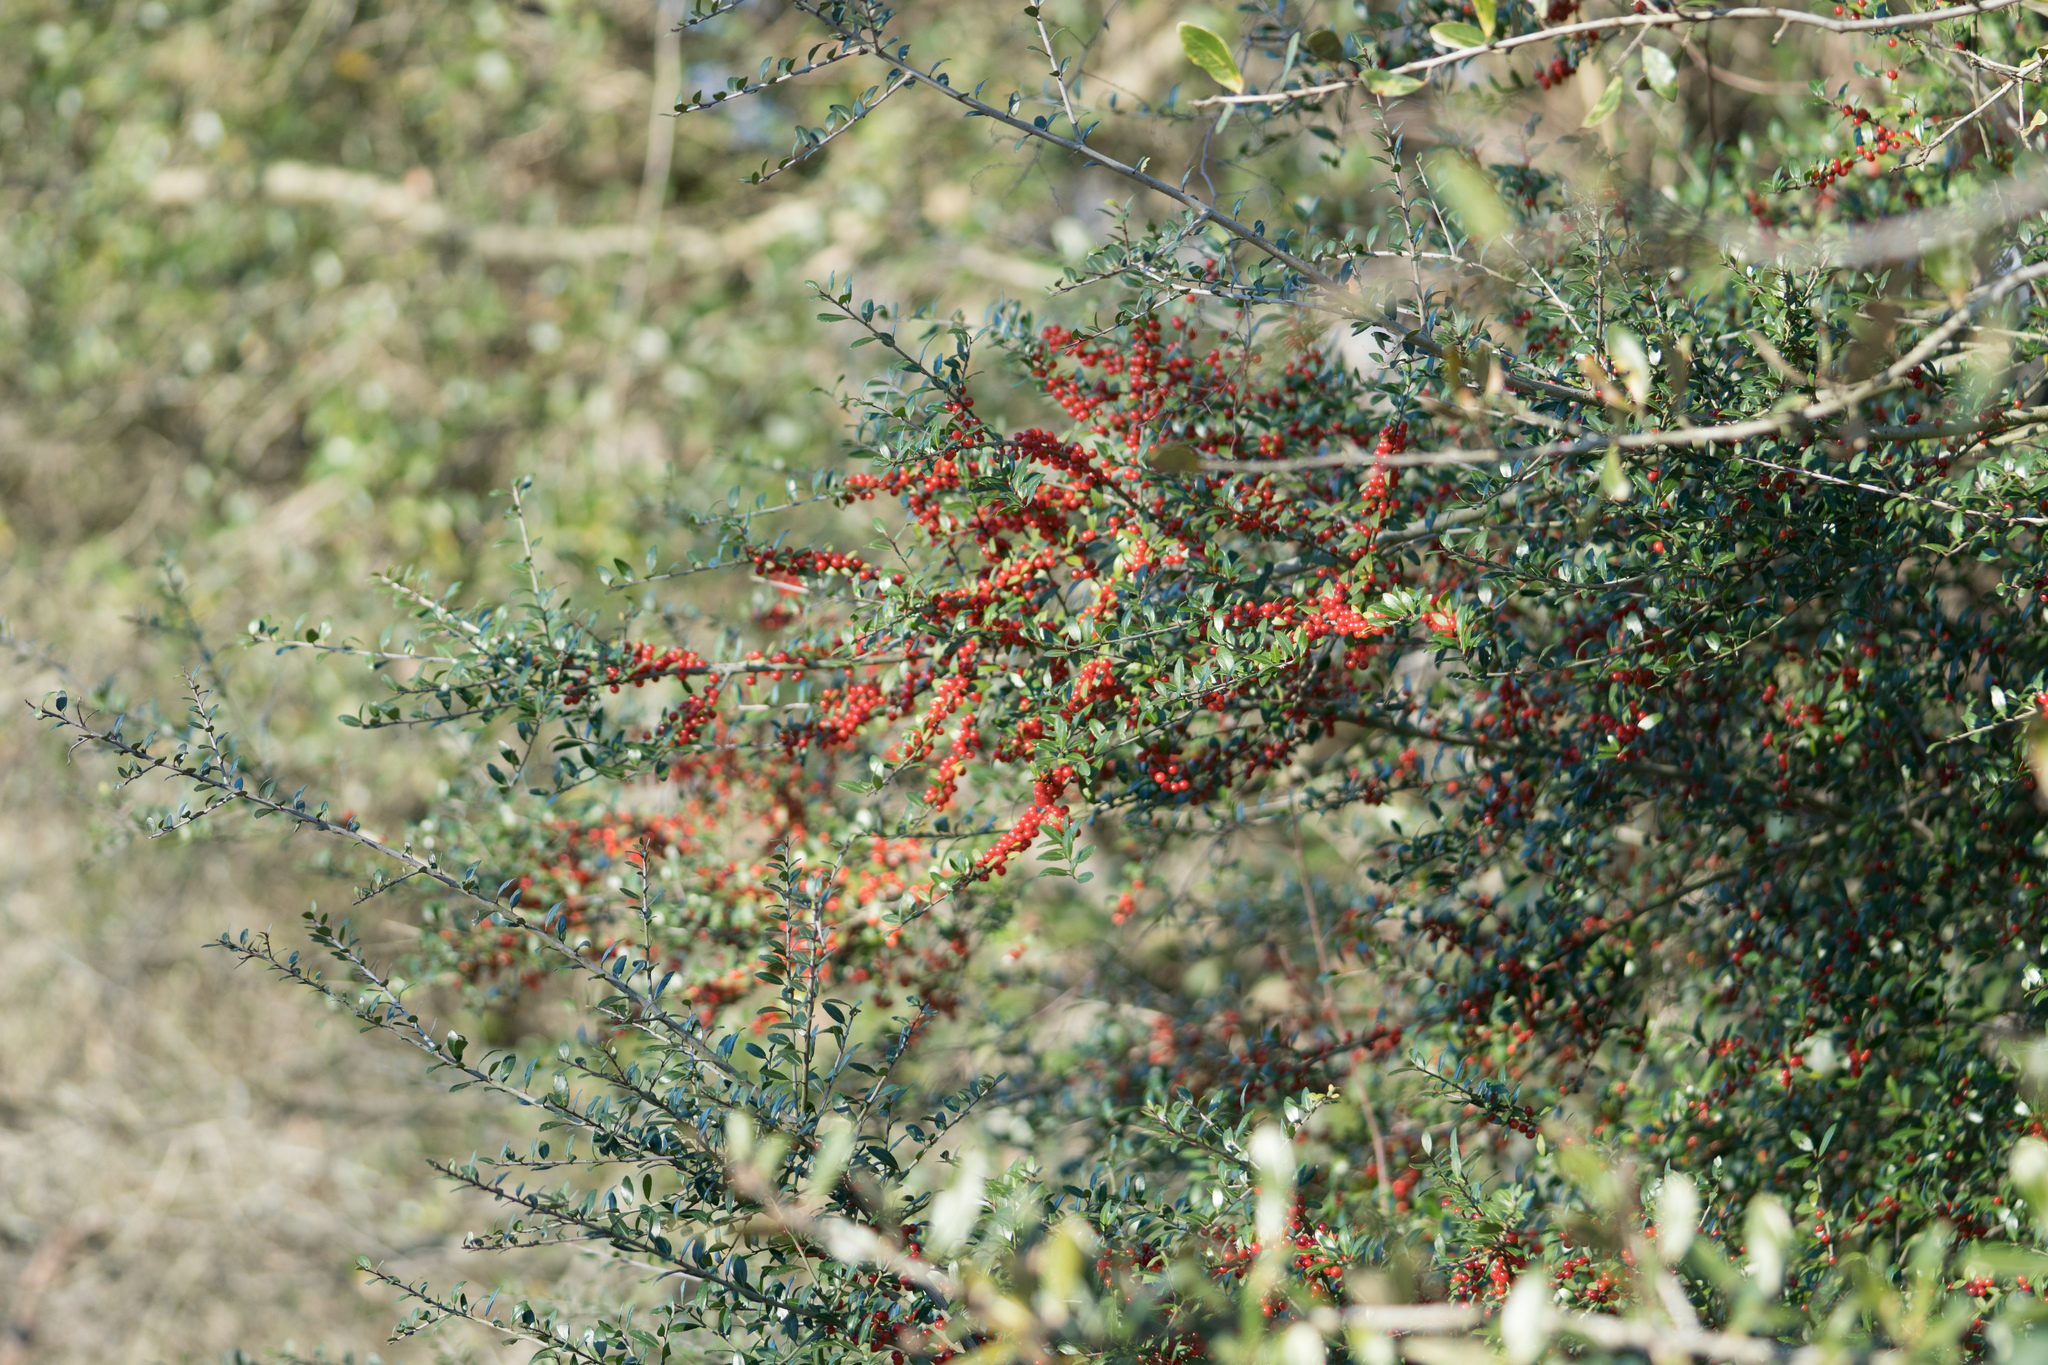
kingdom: Plantae
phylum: Tracheophyta
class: Magnoliopsida
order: Aquifoliales
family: Aquifoliaceae
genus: Ilex
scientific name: Ilex vomitoria
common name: Yaupon holly
